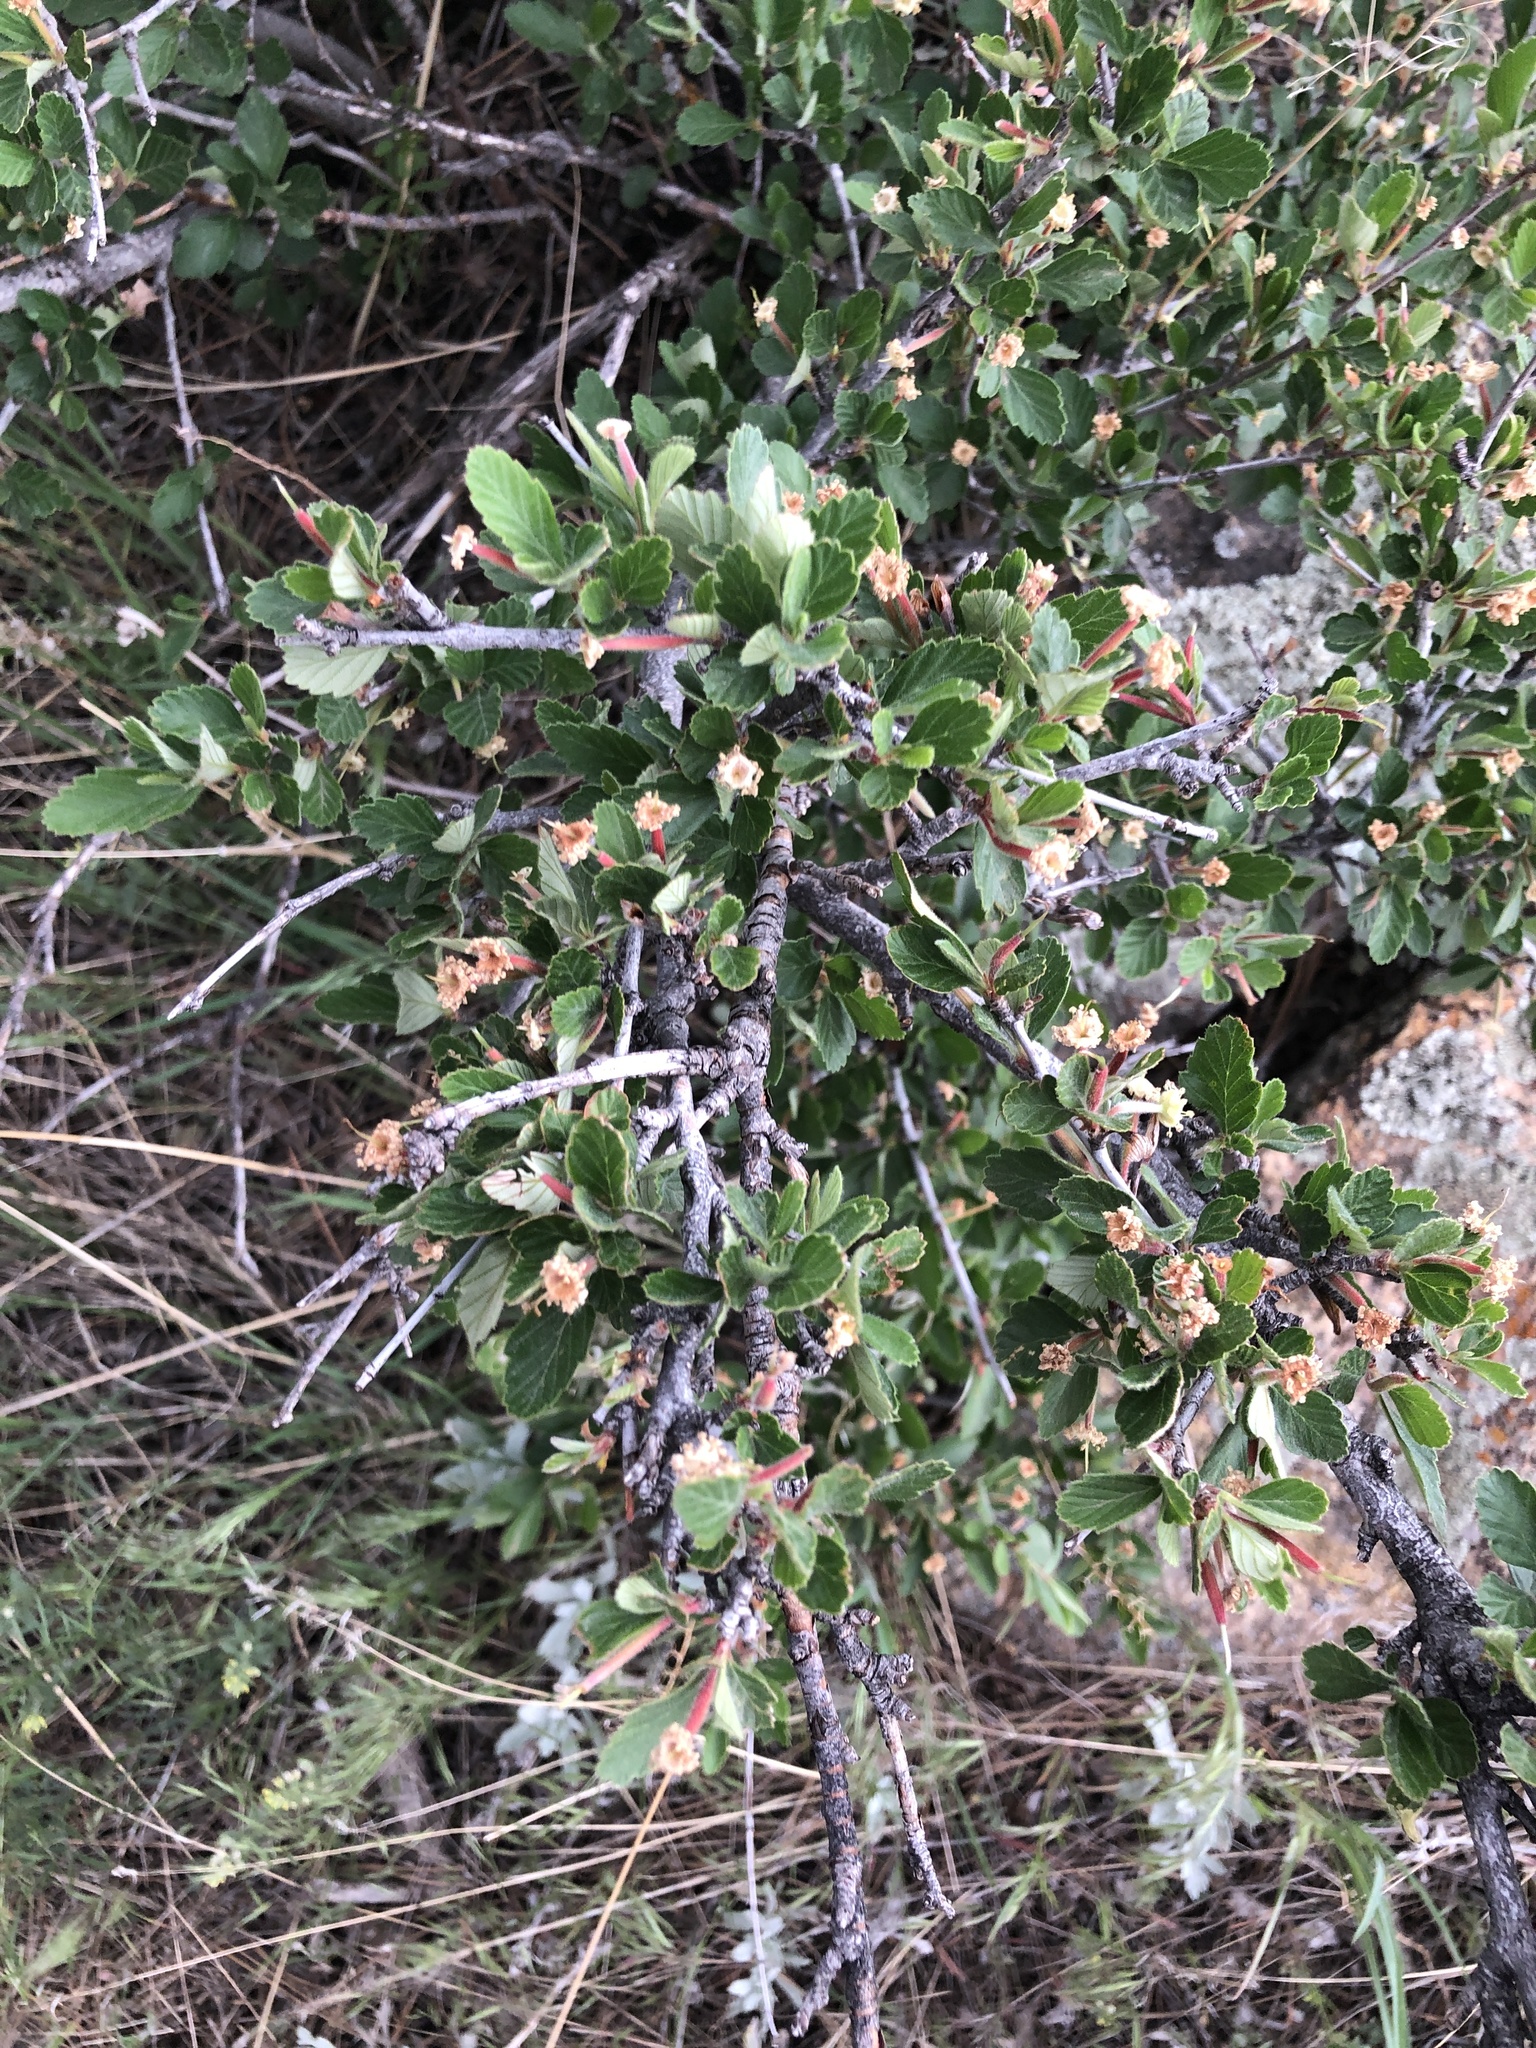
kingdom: Plantae
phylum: Tracheophyta
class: Magnoliopsida
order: Rosales
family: Rosaceae
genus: Cercocarpus
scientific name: Cercocarpus montanus
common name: Alder-leaf cercocarpus
